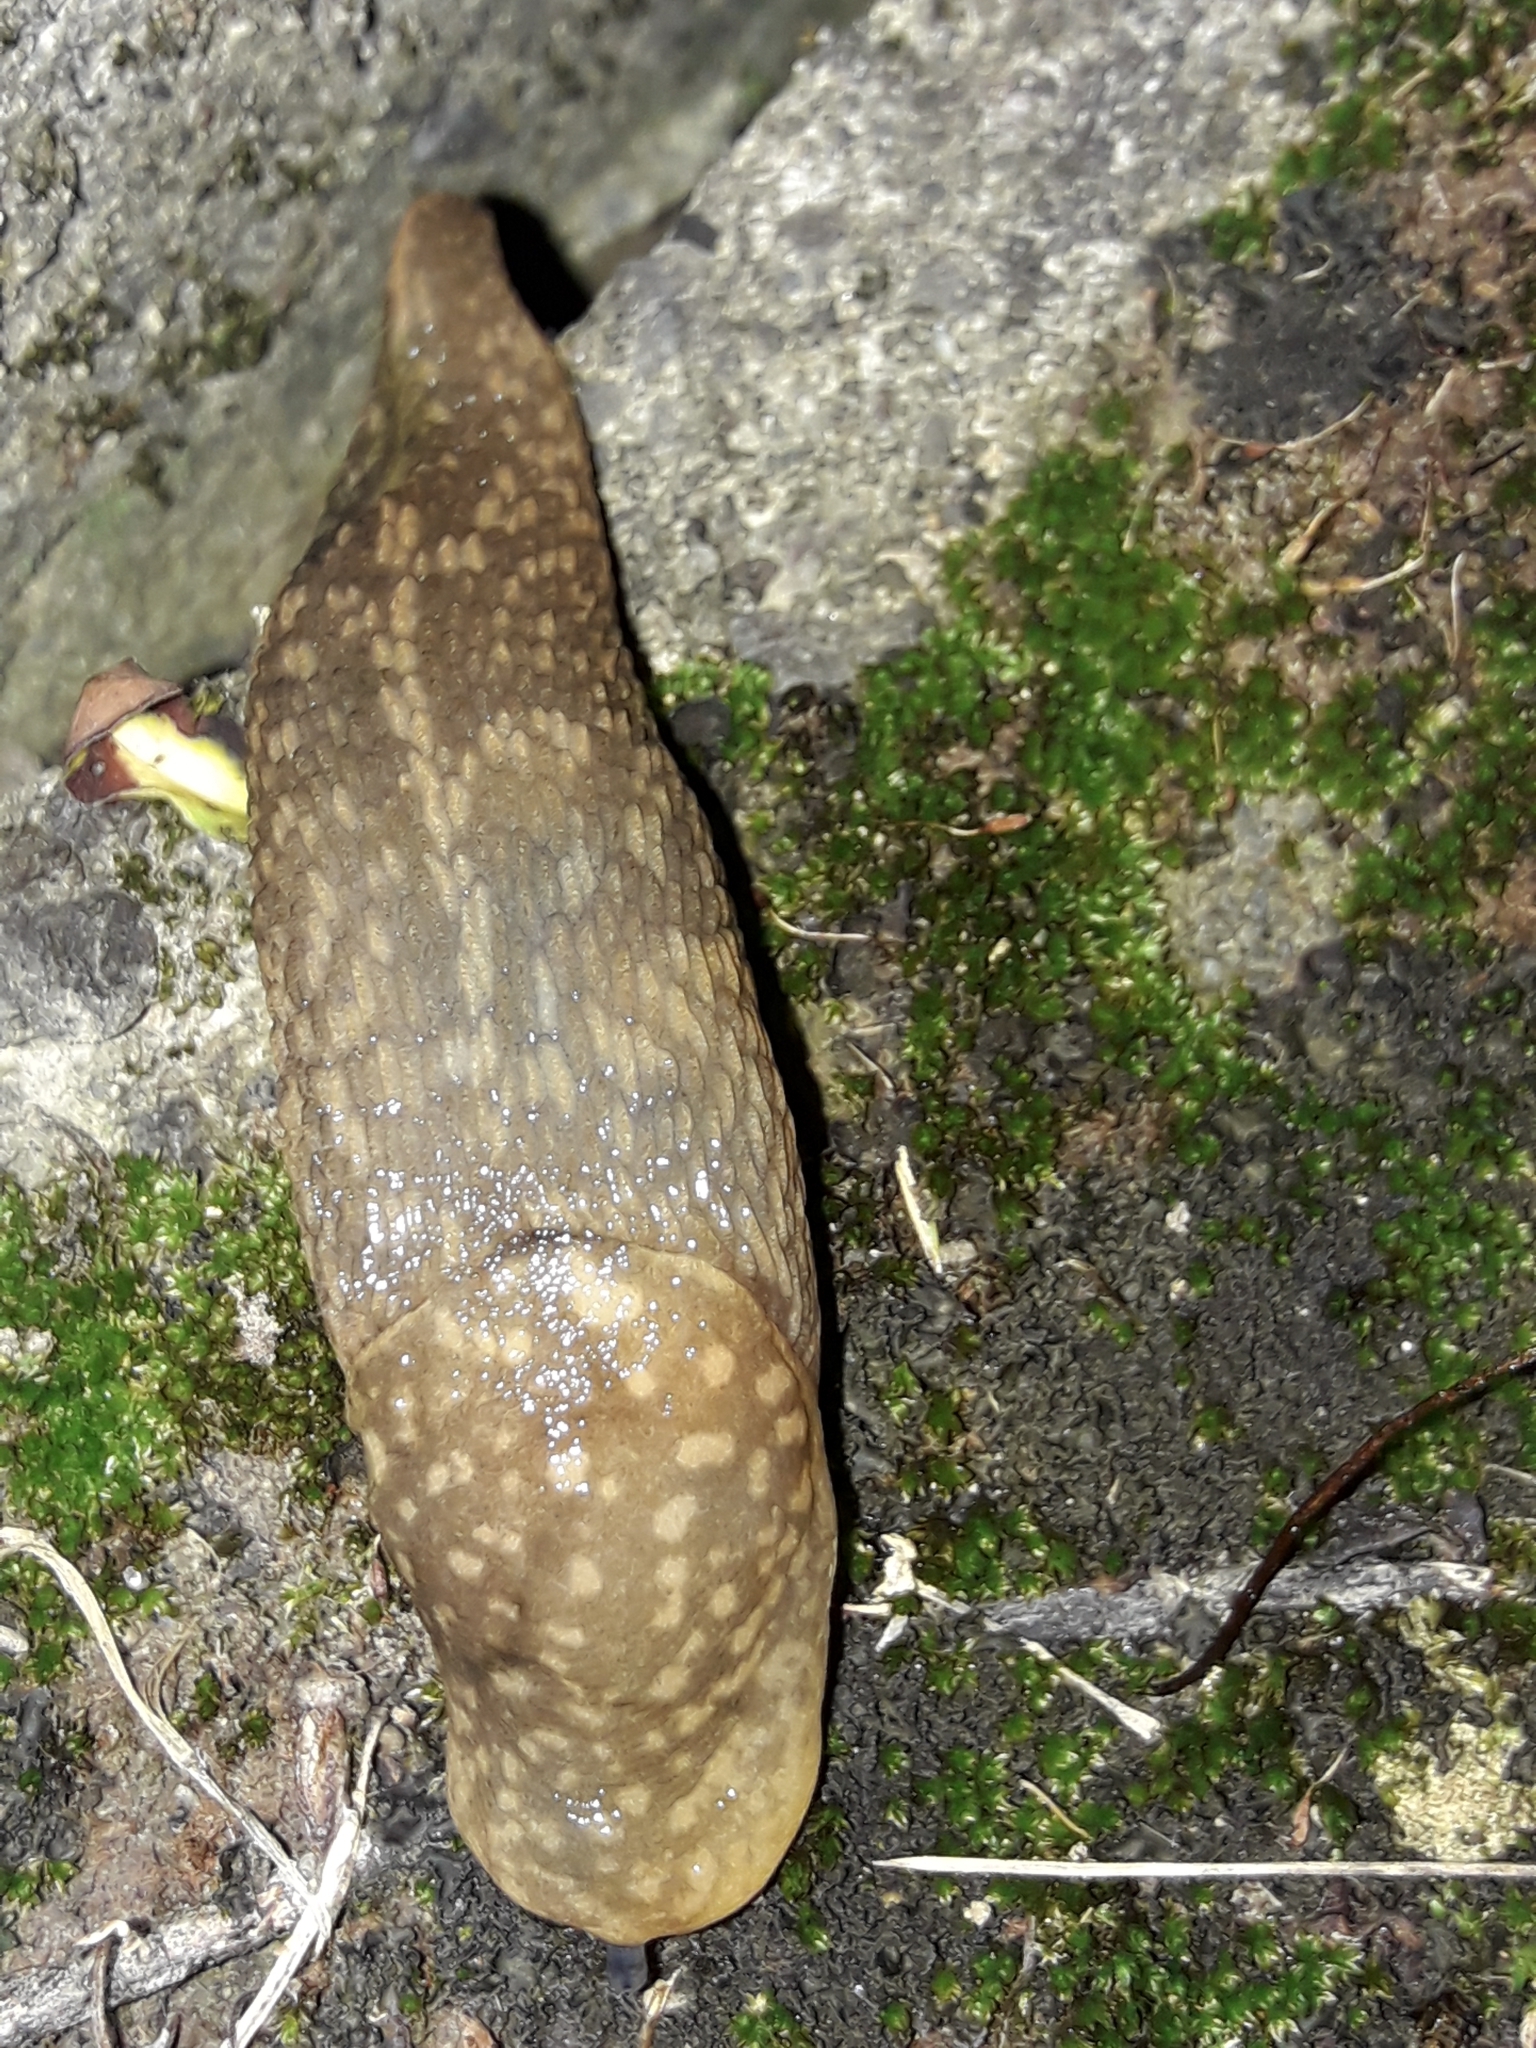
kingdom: Animalia
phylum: Mollusca
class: Gastropoda
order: Stylommatophora
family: Limacidae
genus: Limacus
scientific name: Limacus flavus
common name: Yellow gardenslug
